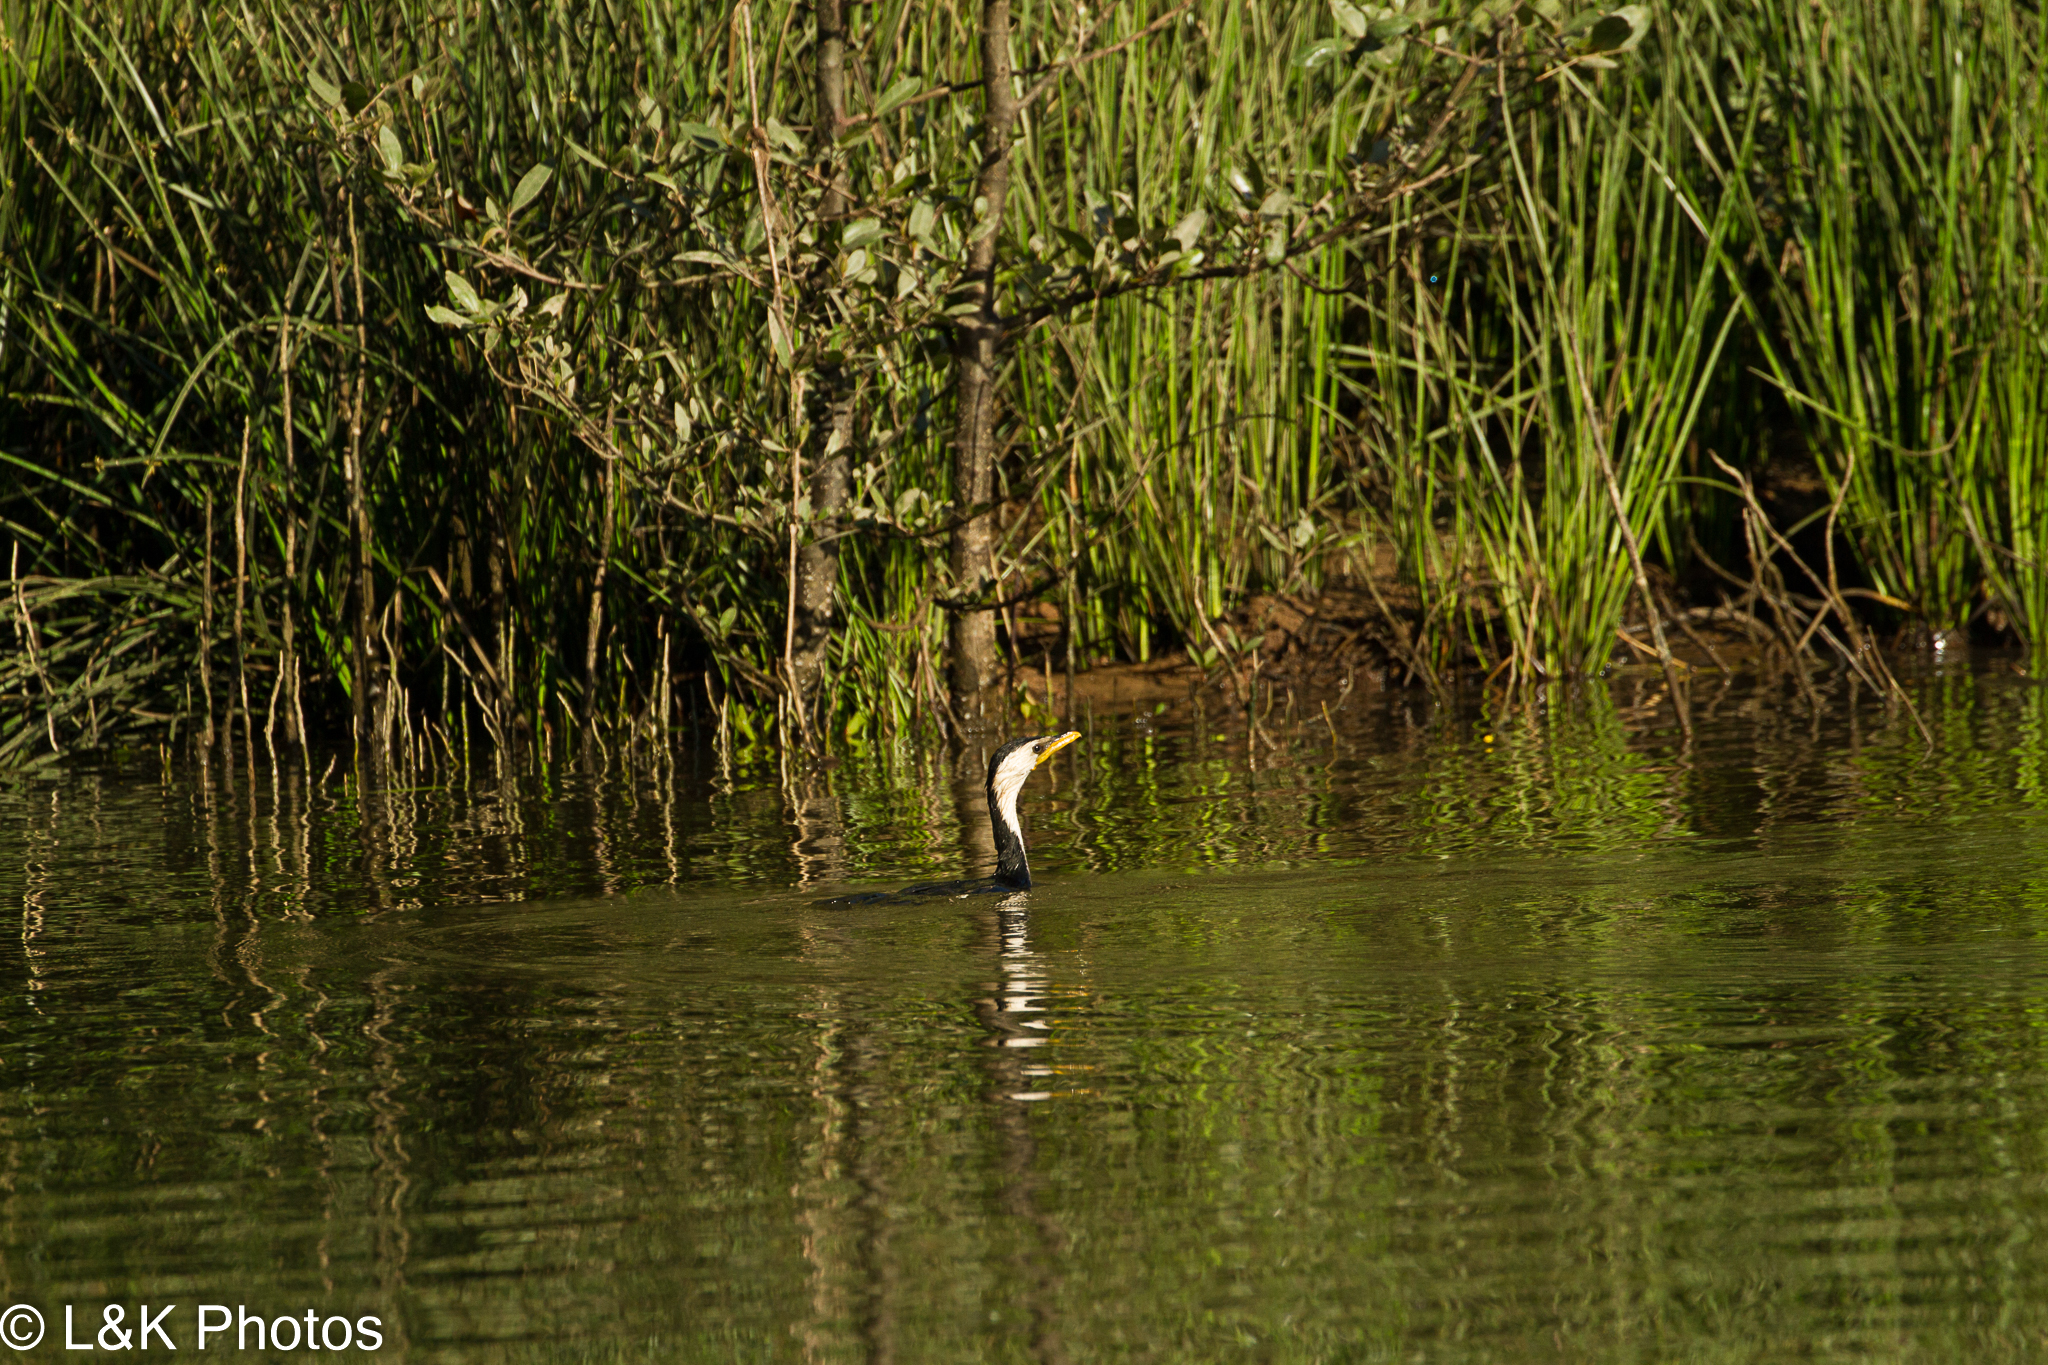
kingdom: Animalia
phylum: Chordata
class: Aves
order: Suliformes
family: Phalacrocoracidae
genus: Microcarbo
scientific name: Microcarbo melanoleucos
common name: Little pied cormorant
